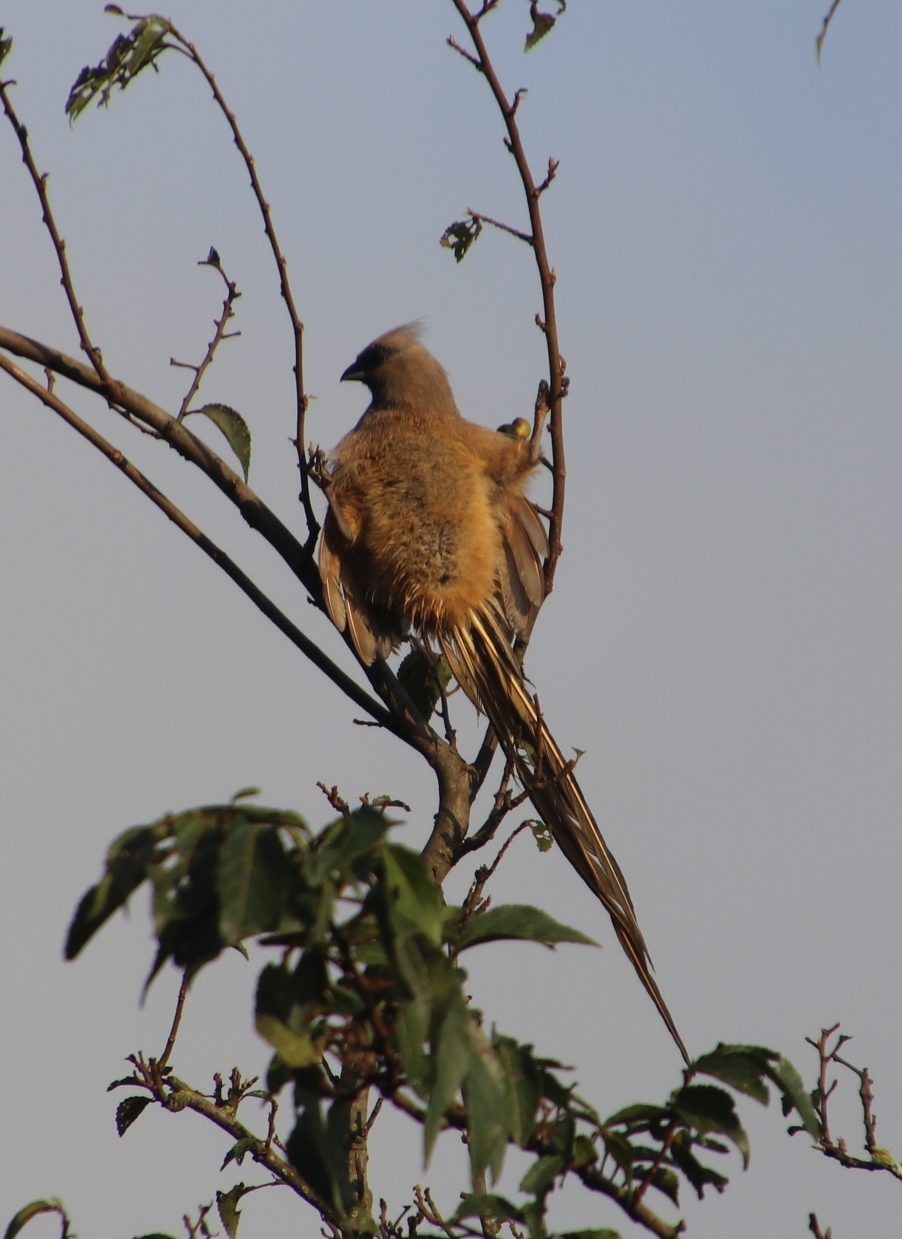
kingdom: Animalia
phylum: Chordata
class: Aves
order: Coliiformes
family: Coliidae
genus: Colius
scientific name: Colius striatus
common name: Speckled mousebird
